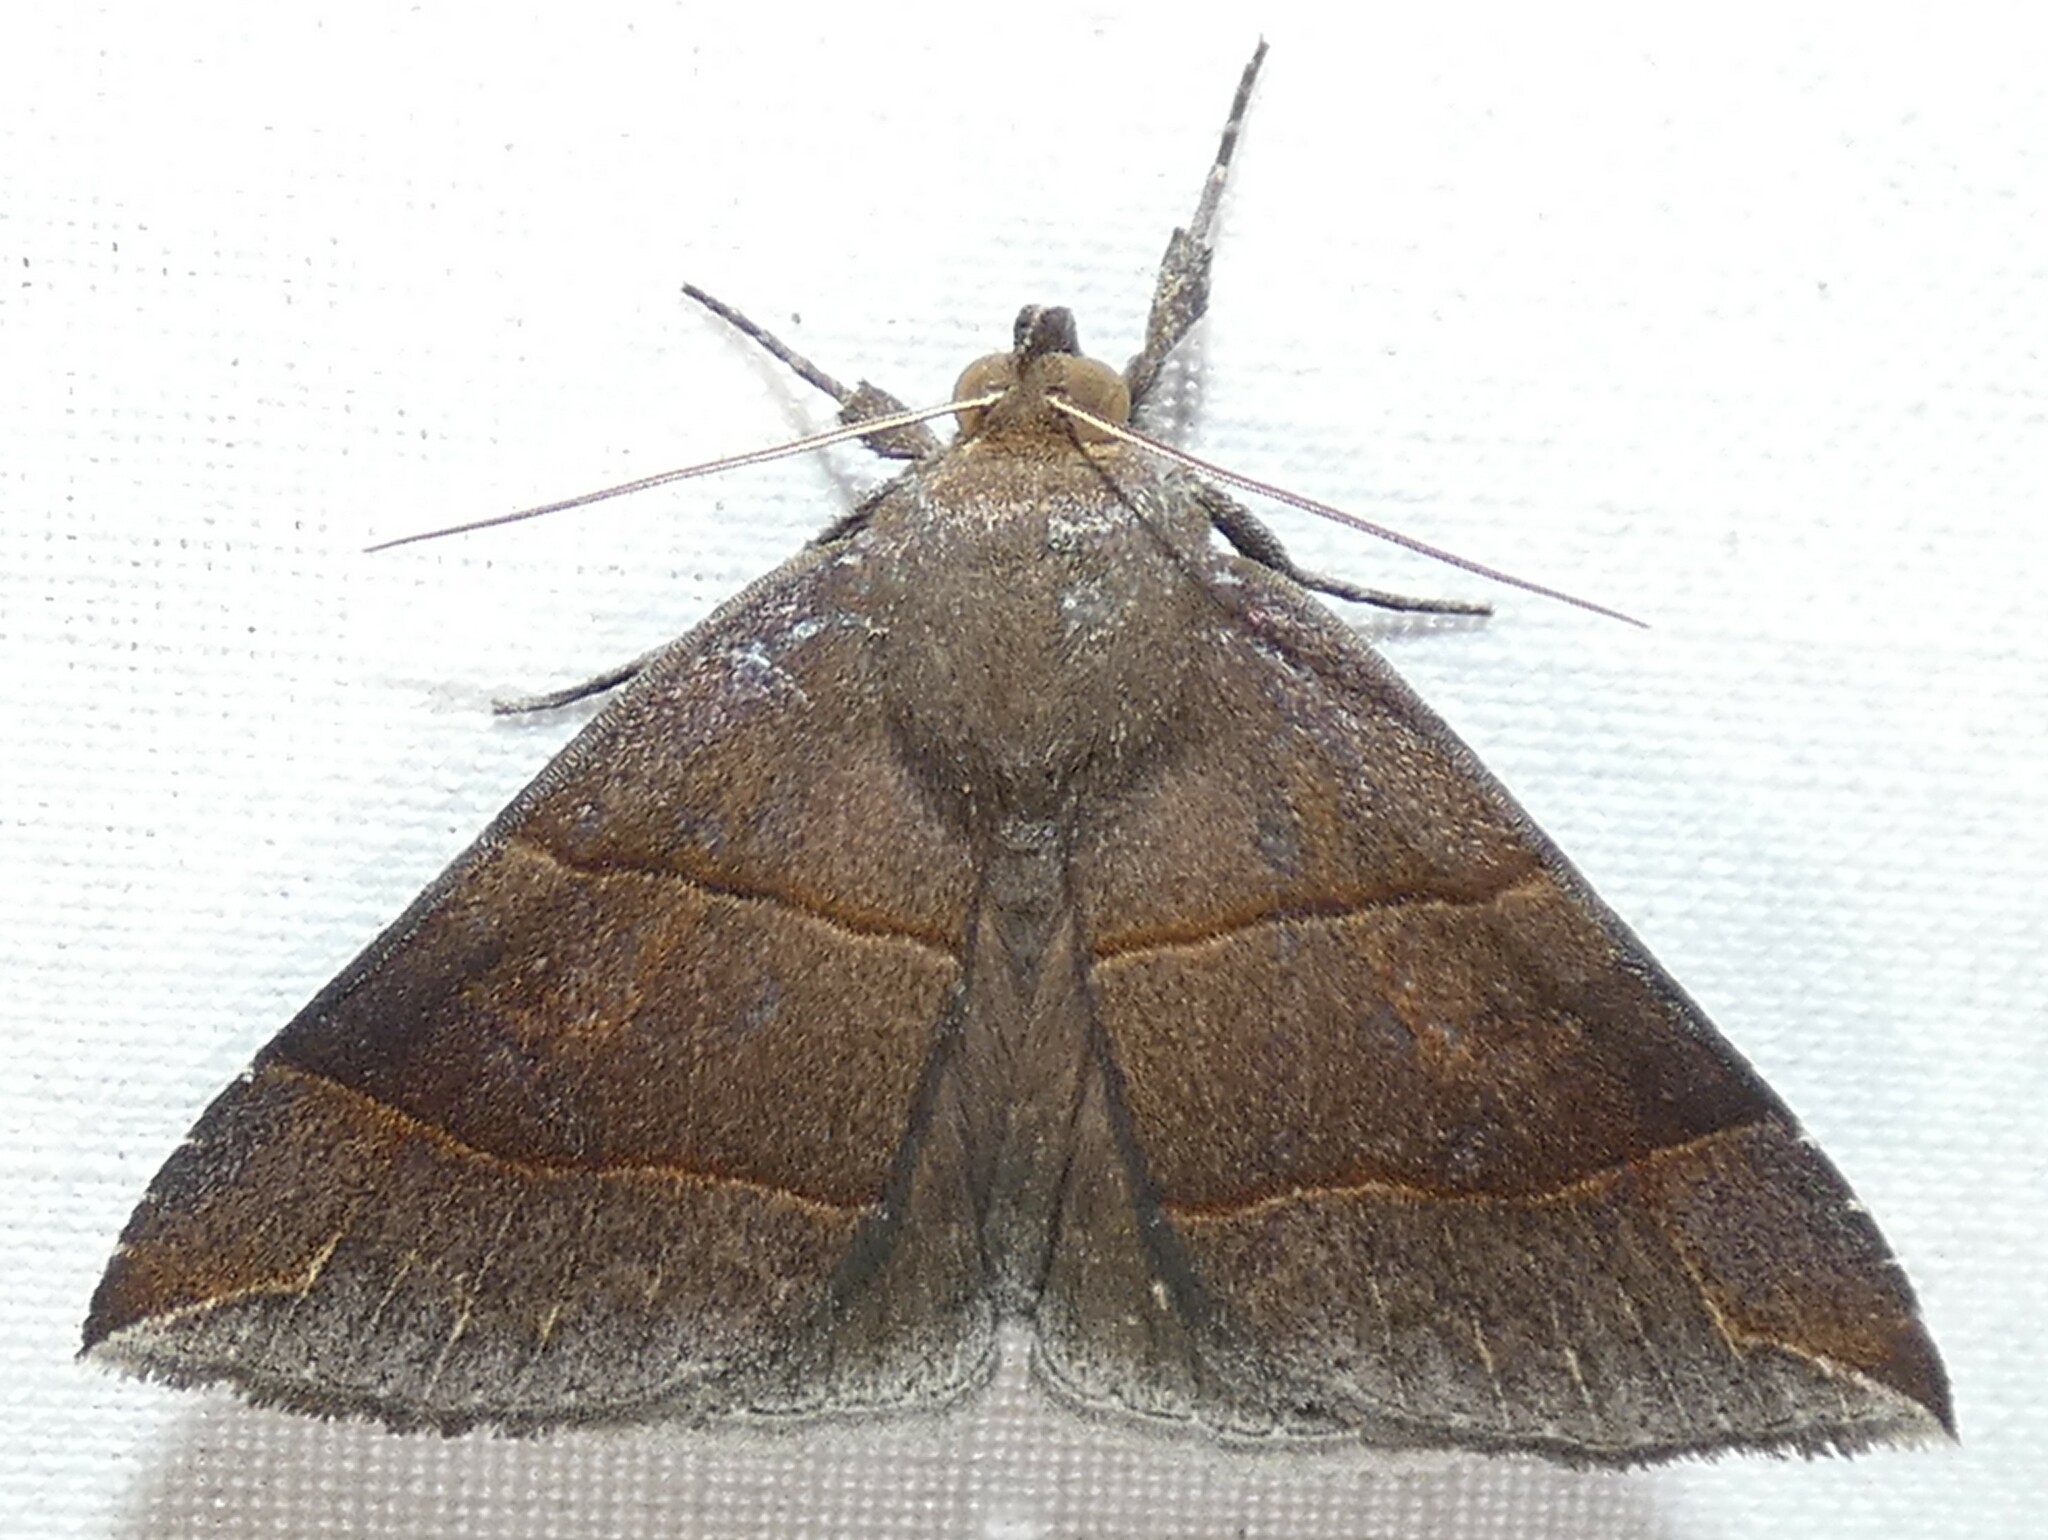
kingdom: Animalia
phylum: Arthropoda
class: Insecta
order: Lepidoptera
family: Erebidae
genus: Parallelia
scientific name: Parallelia bistriaris
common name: Maple looper moth
